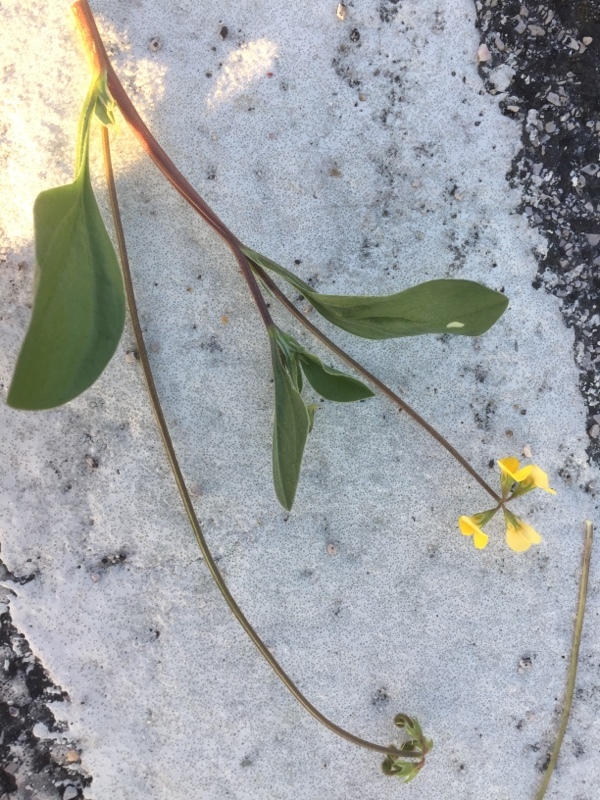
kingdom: Plantae
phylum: Tracheophyta
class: Magnoliopsida
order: Fabales
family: Fabaceae
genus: Scorpiurus
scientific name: Scorpiurus muricatus
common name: Caterpillar-plant
